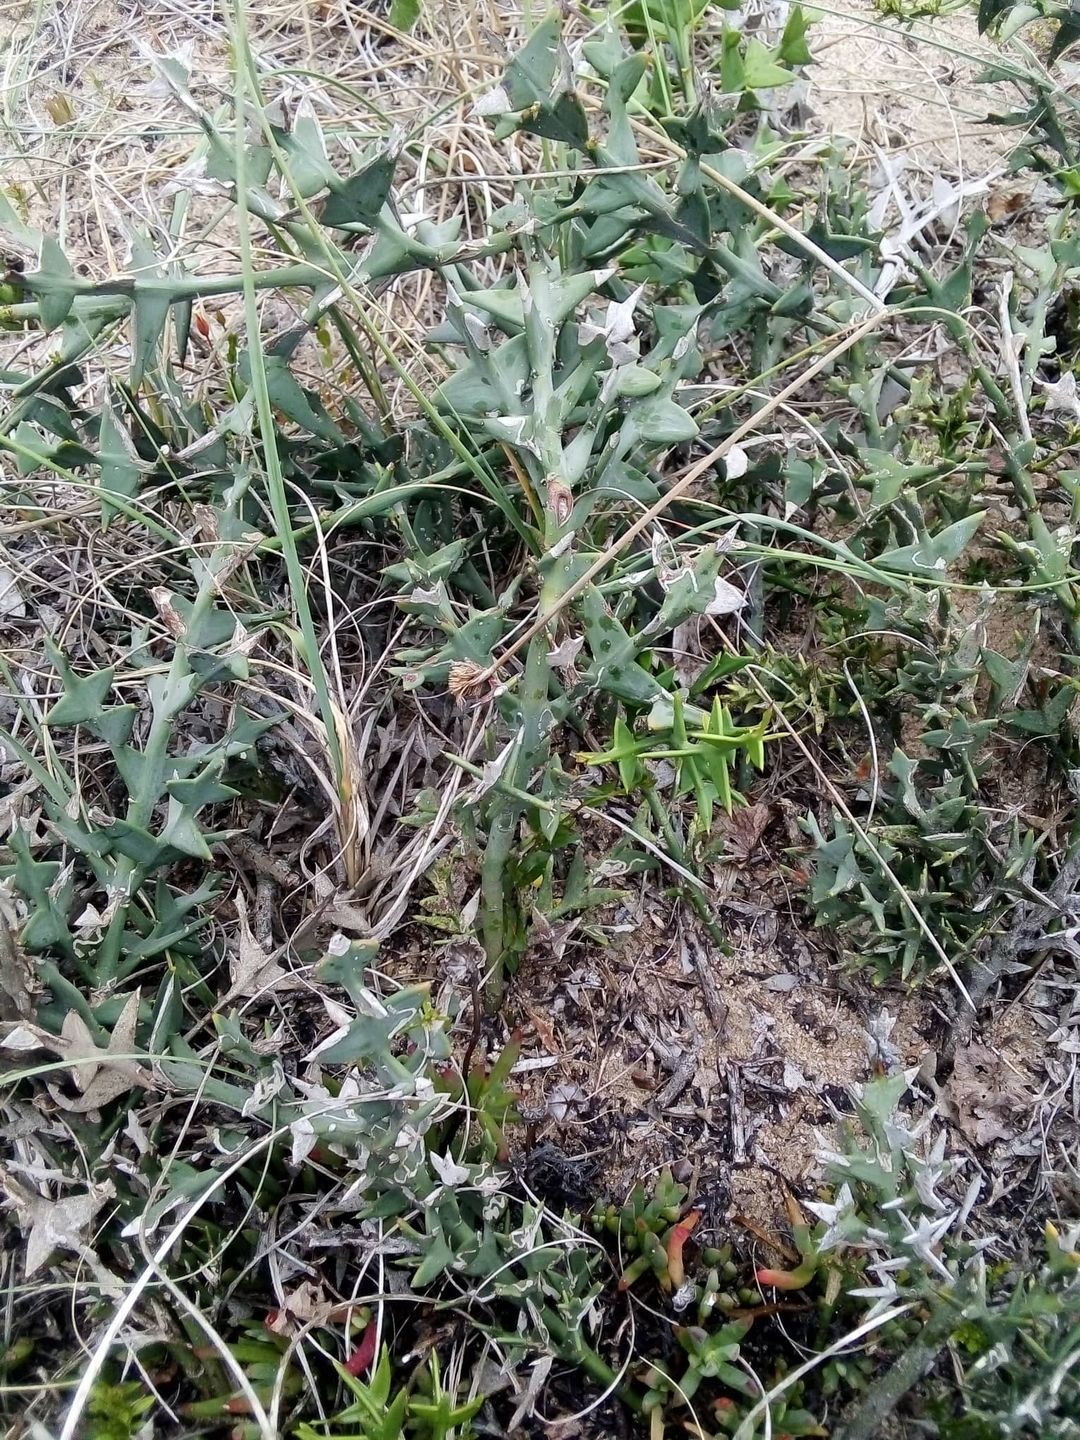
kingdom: Plantae
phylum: Tracheophyta
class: Magnoliopsida
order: Rosales
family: Rhamnaceae
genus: Colletia
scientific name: Colletia paradoxa
